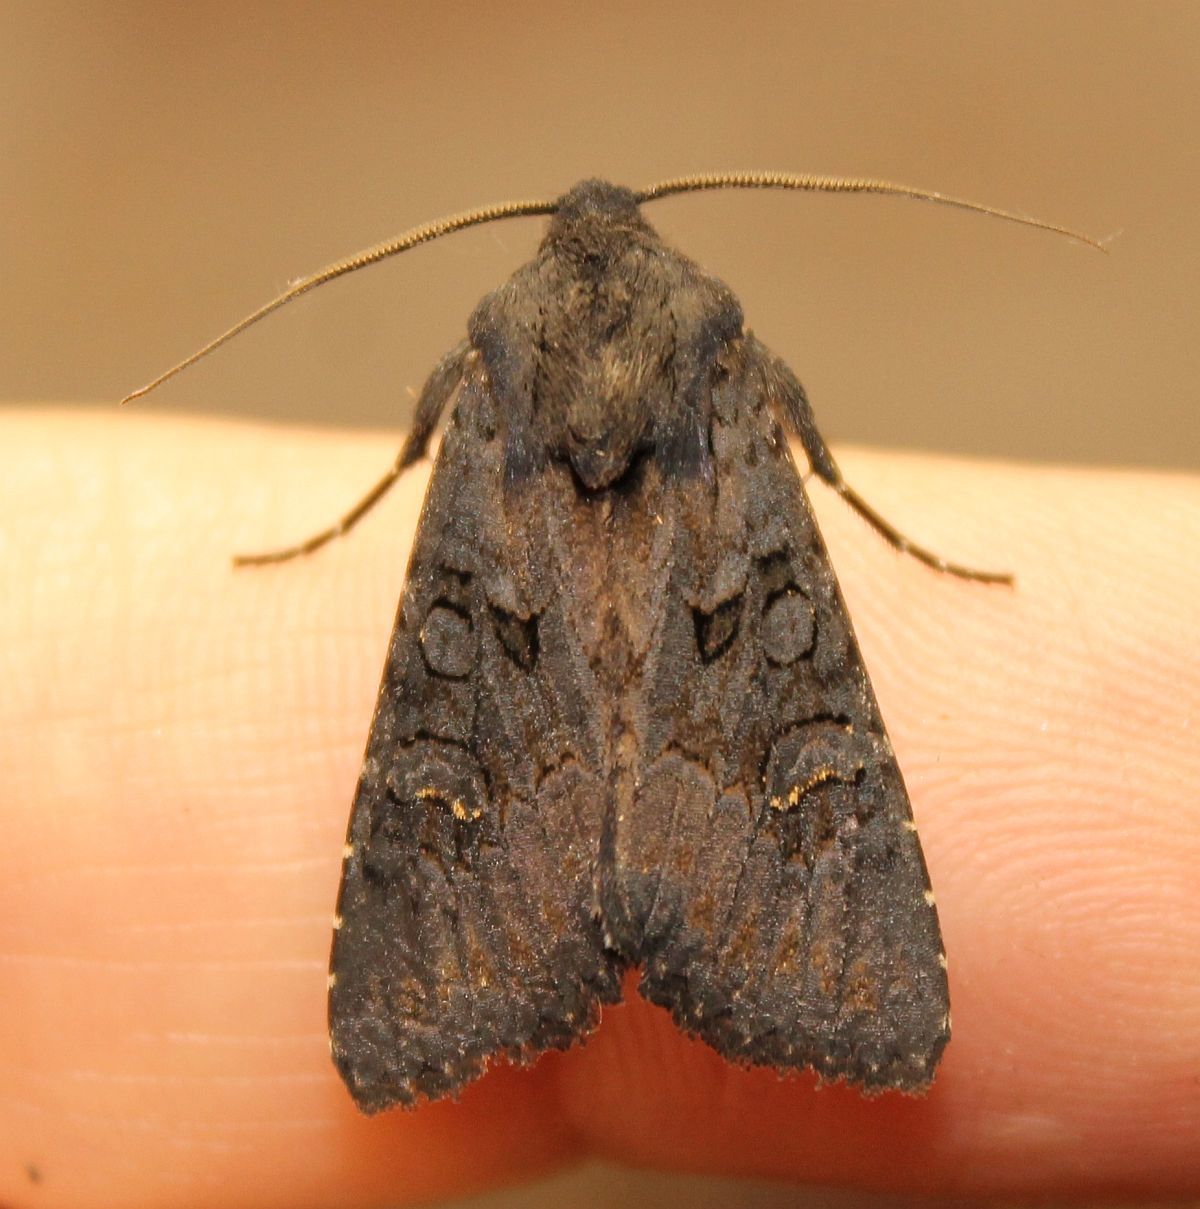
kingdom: Animalia
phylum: Arthropoda
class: Insecta
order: Lepidoptera
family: Noctuidae
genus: Aporophyla
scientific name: Aporophyla nigra
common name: Black rustic
